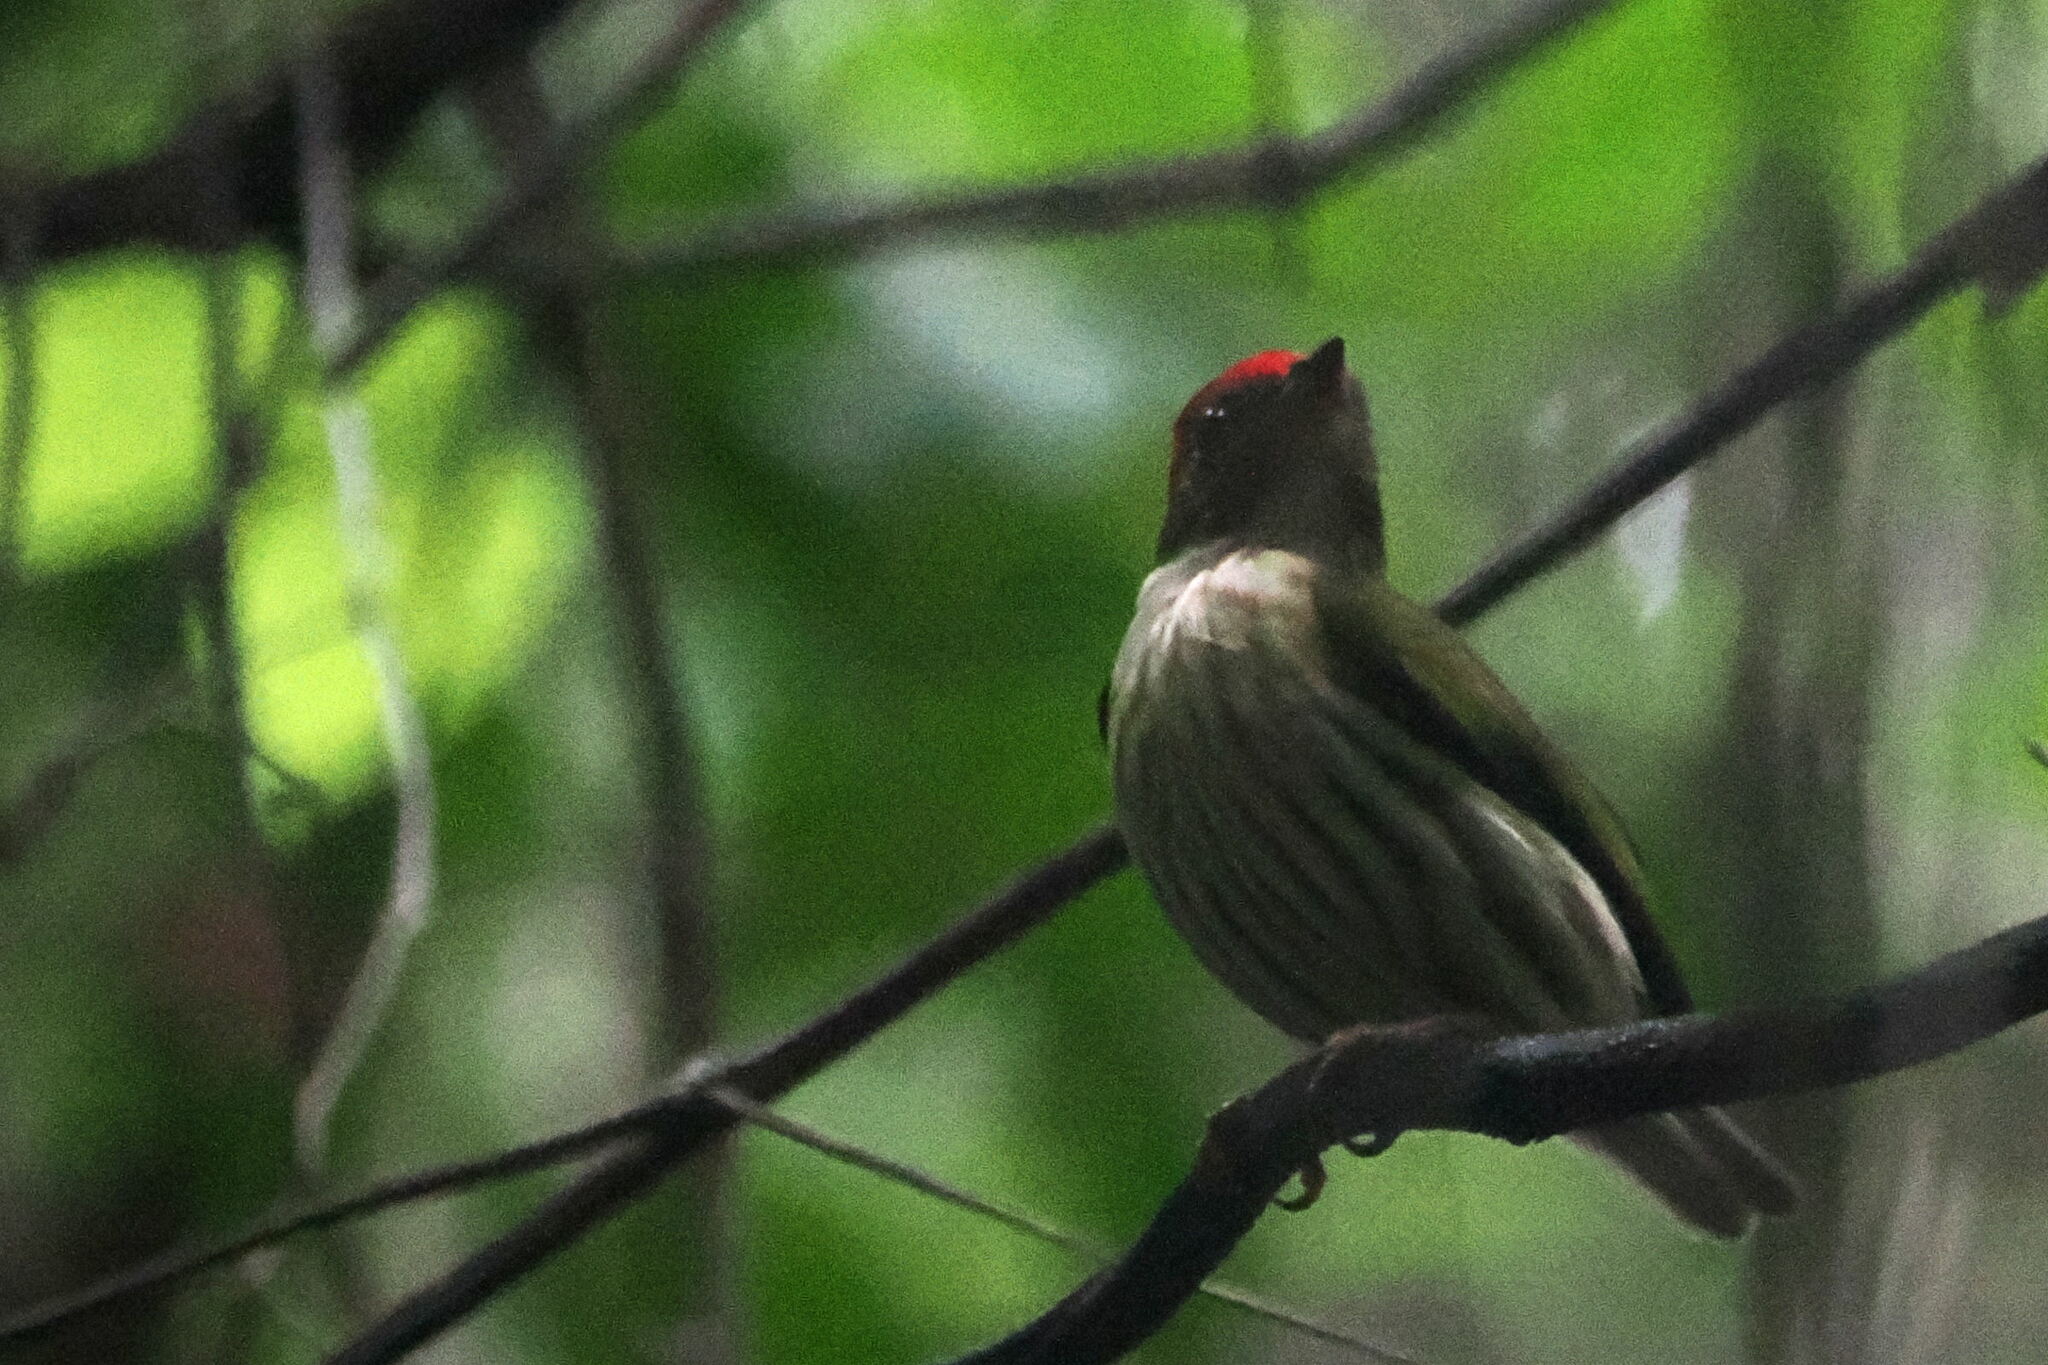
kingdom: Animalia
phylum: Chordata
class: Aves
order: Passeriformes
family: Pipridae
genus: Machaeropterus
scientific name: Machaeropterus regulus
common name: Eastern striped manakin
